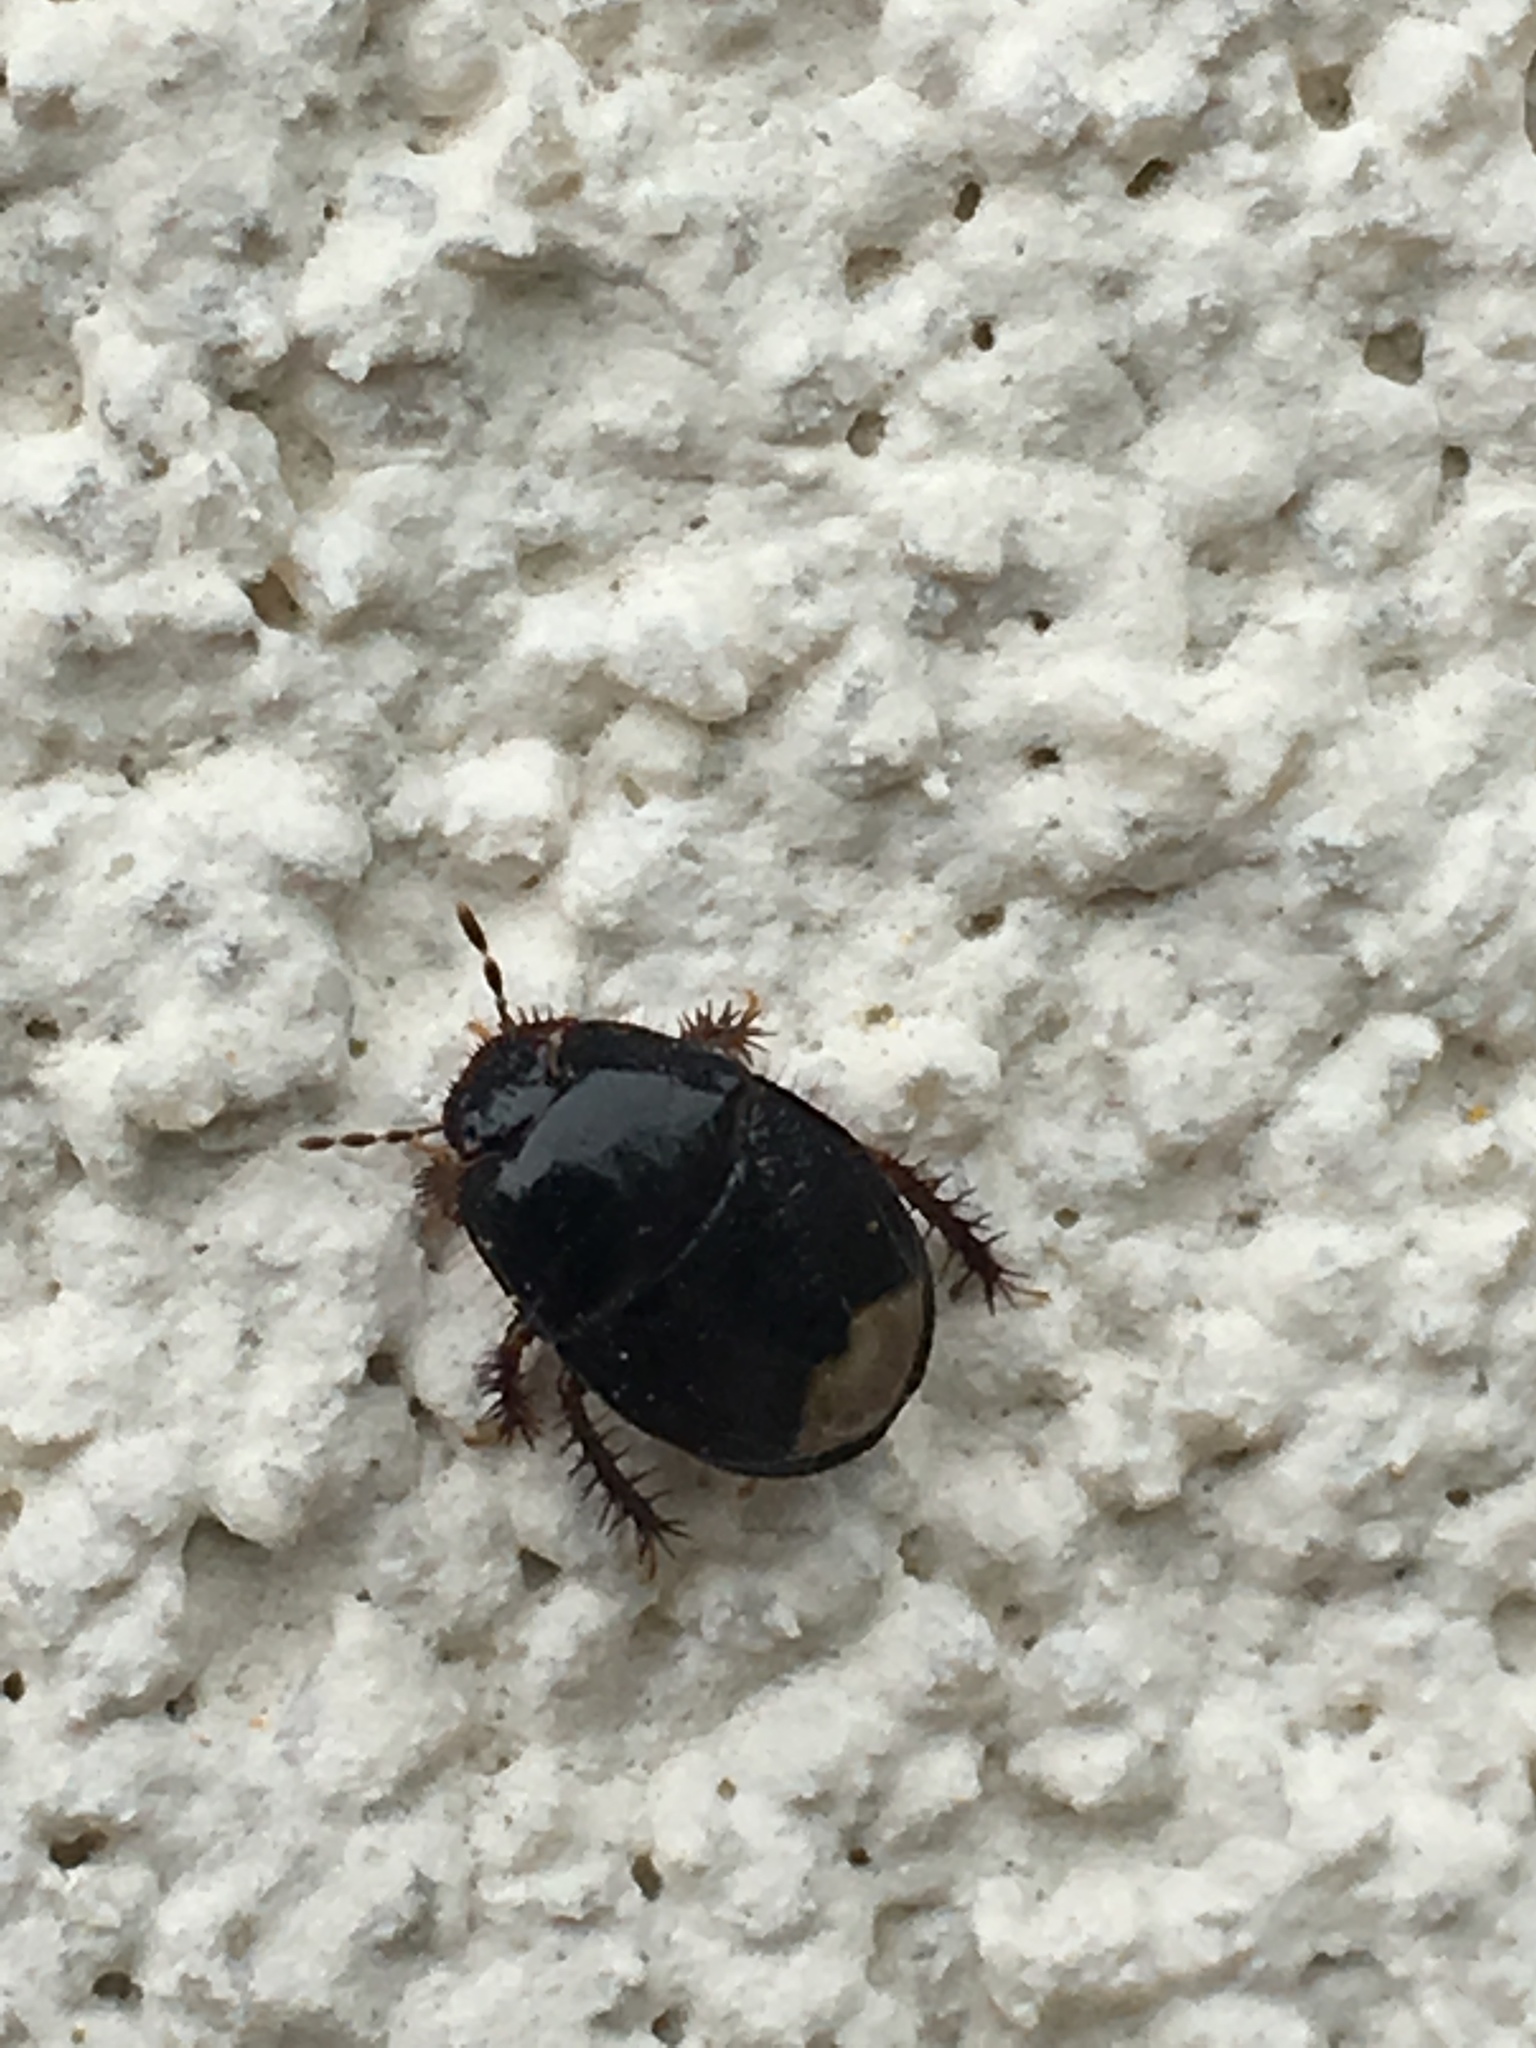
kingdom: Animalia
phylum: Arthropoda
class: Insecta
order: Hemiptera
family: Cydnidae
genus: Pangaeus
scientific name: Pangaeus bilineatus
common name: Burrower bug
